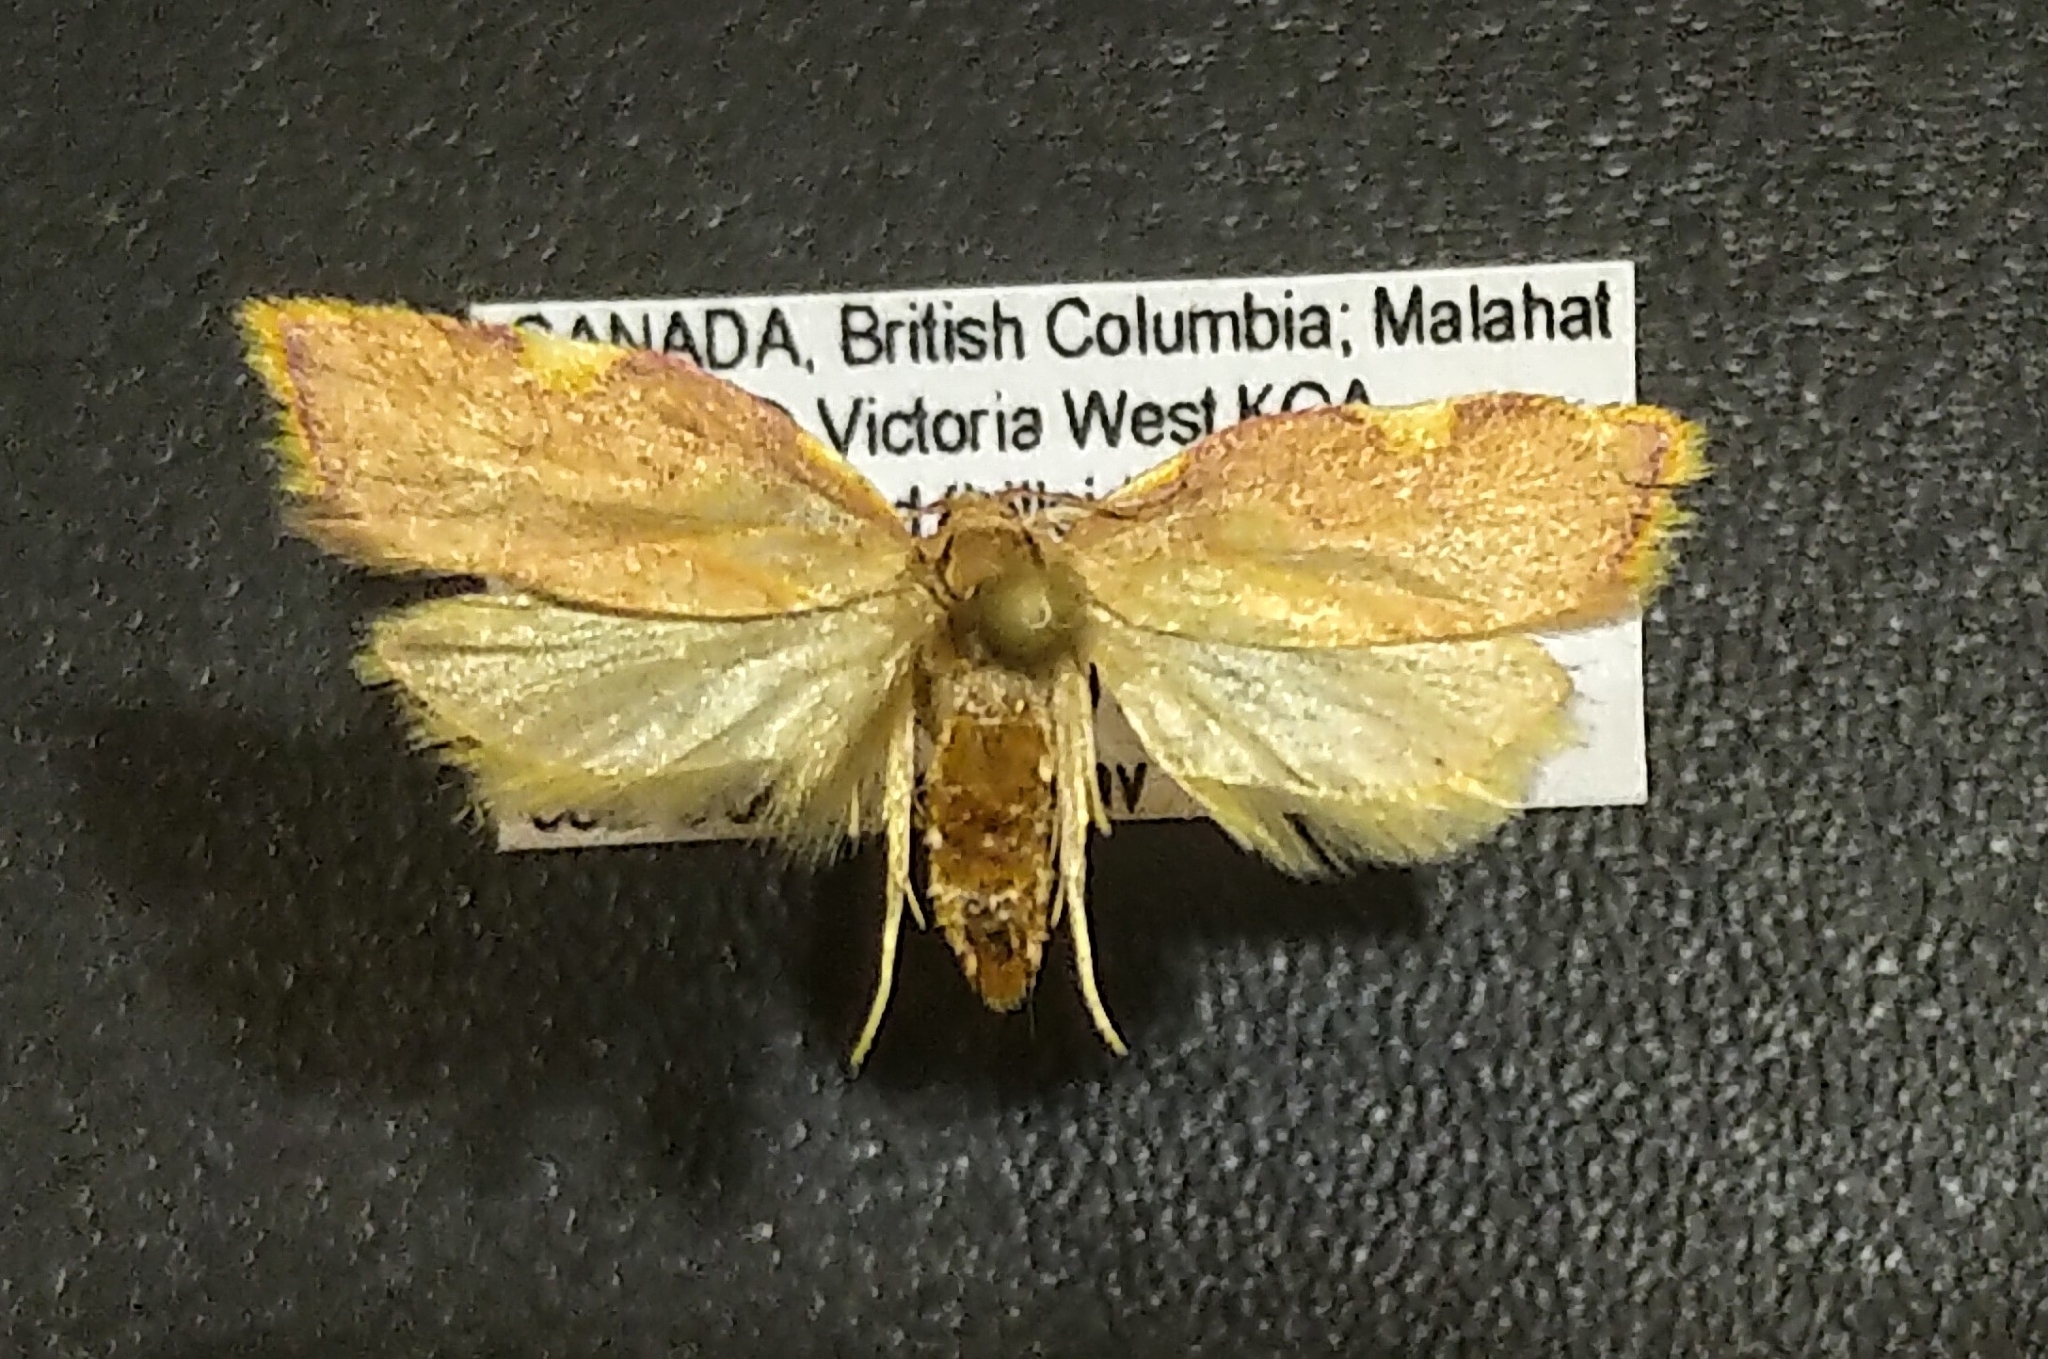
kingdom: Animalia
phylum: Arthropoda
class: Insecta
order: Lepidoptera
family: Peleopodidae
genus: Carcina
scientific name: Carcina quercana
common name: Moth
